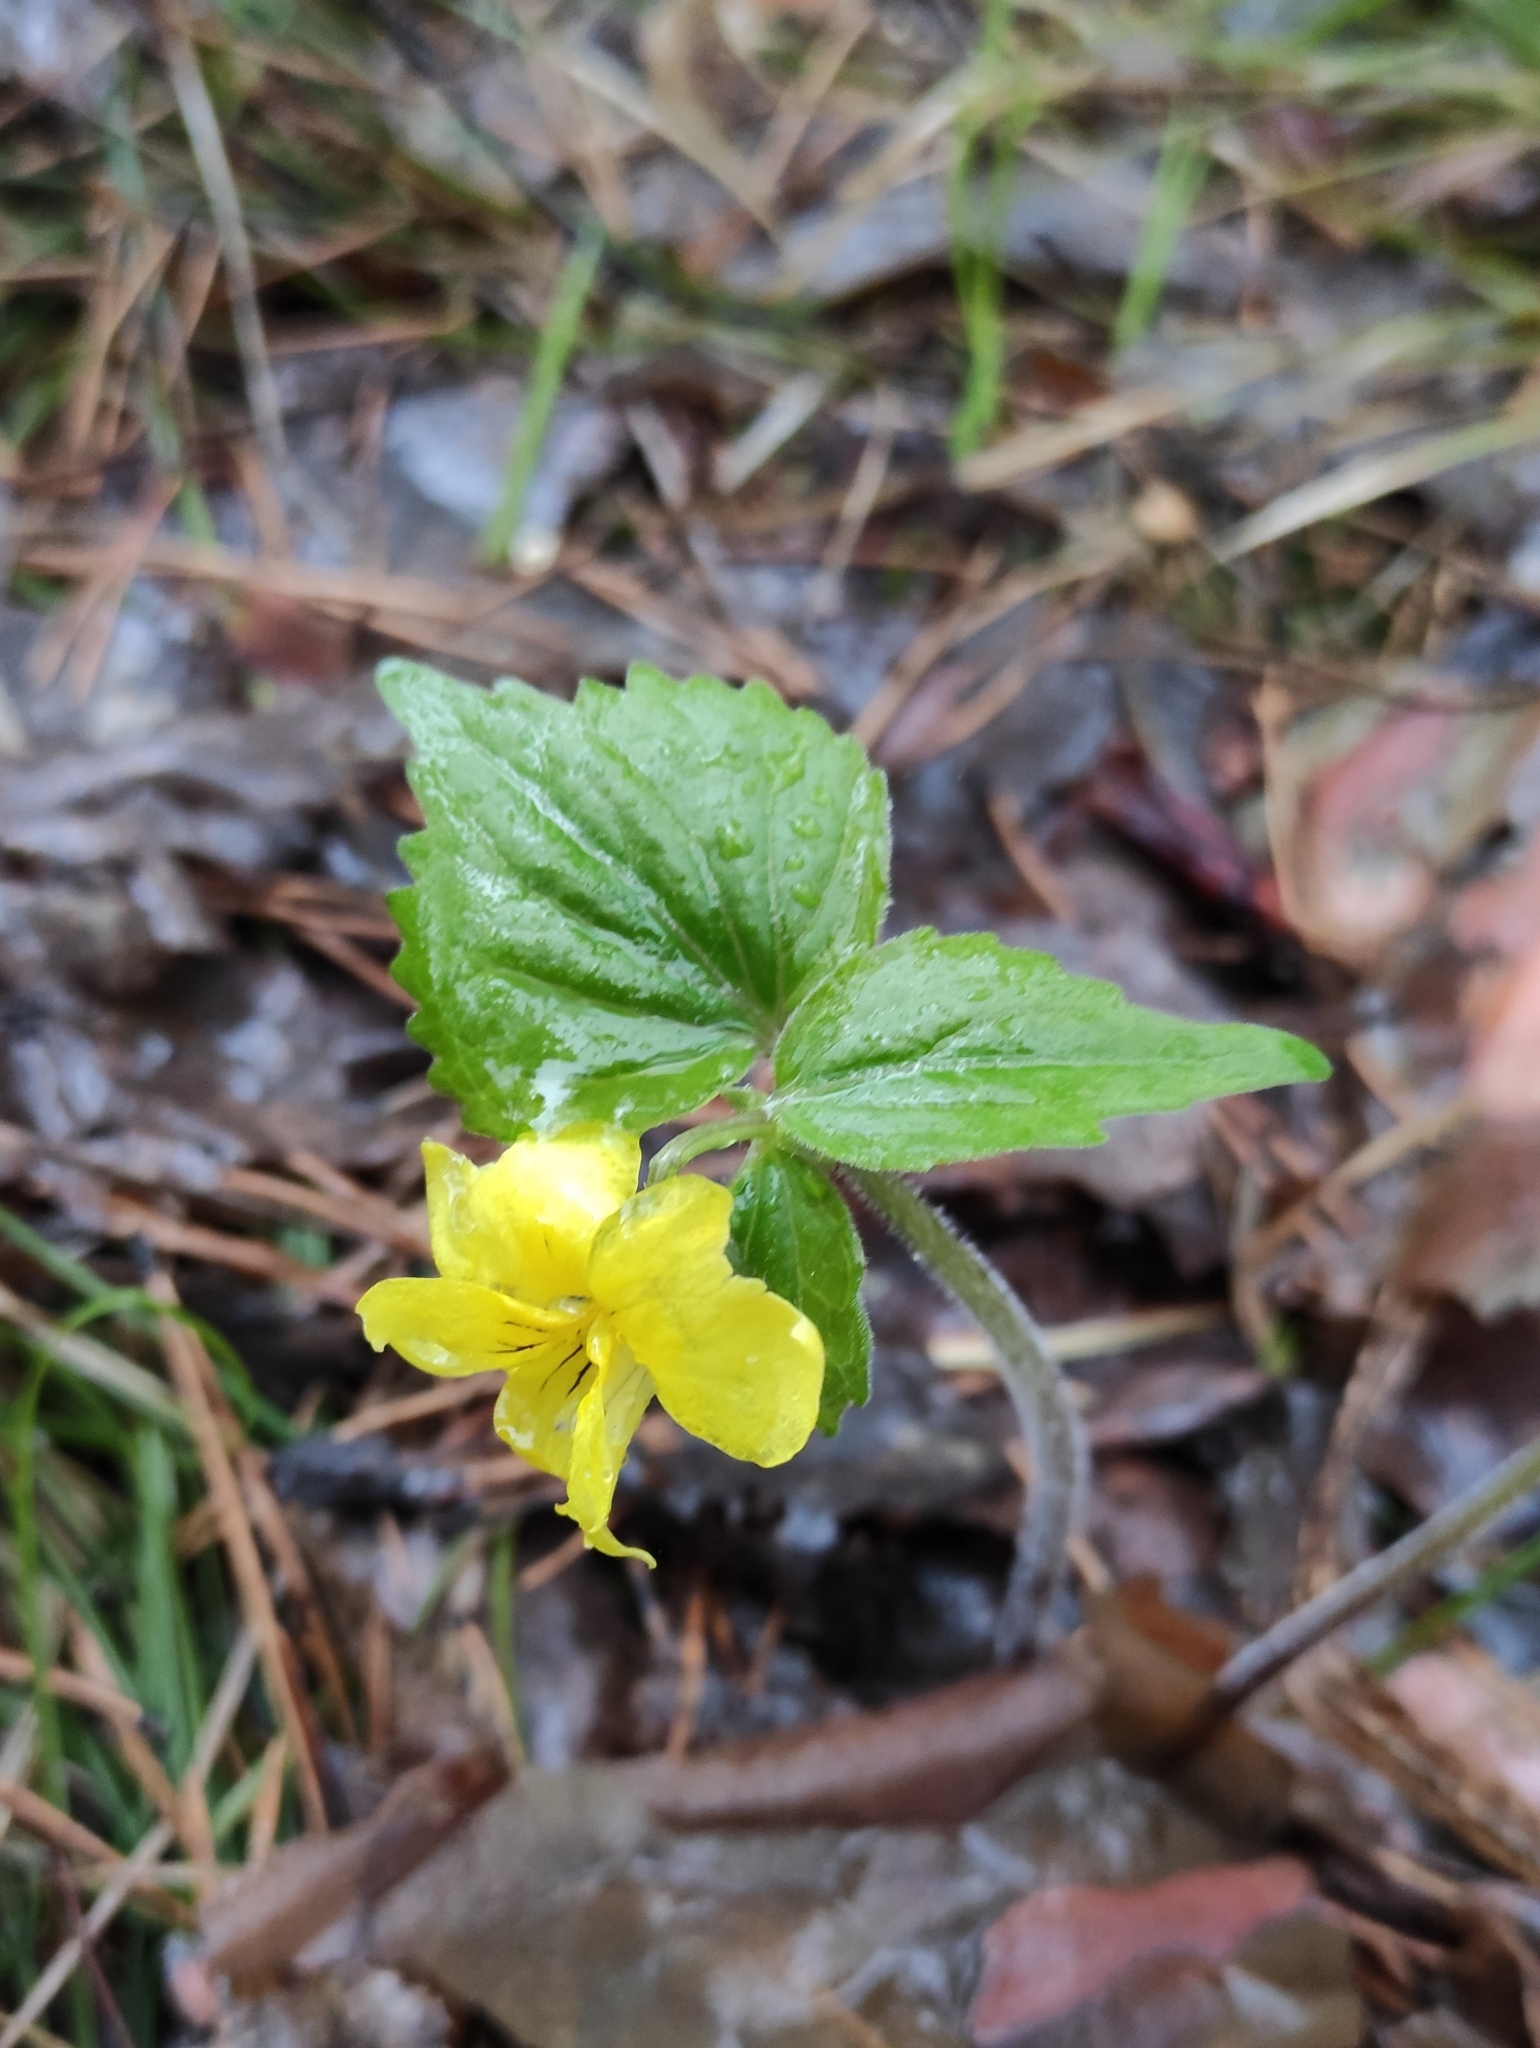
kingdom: Plantae
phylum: Tracheophyta
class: Magnoliopsida
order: Malpighiales
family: Violaceae
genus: Viola
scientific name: Viola uniflora
